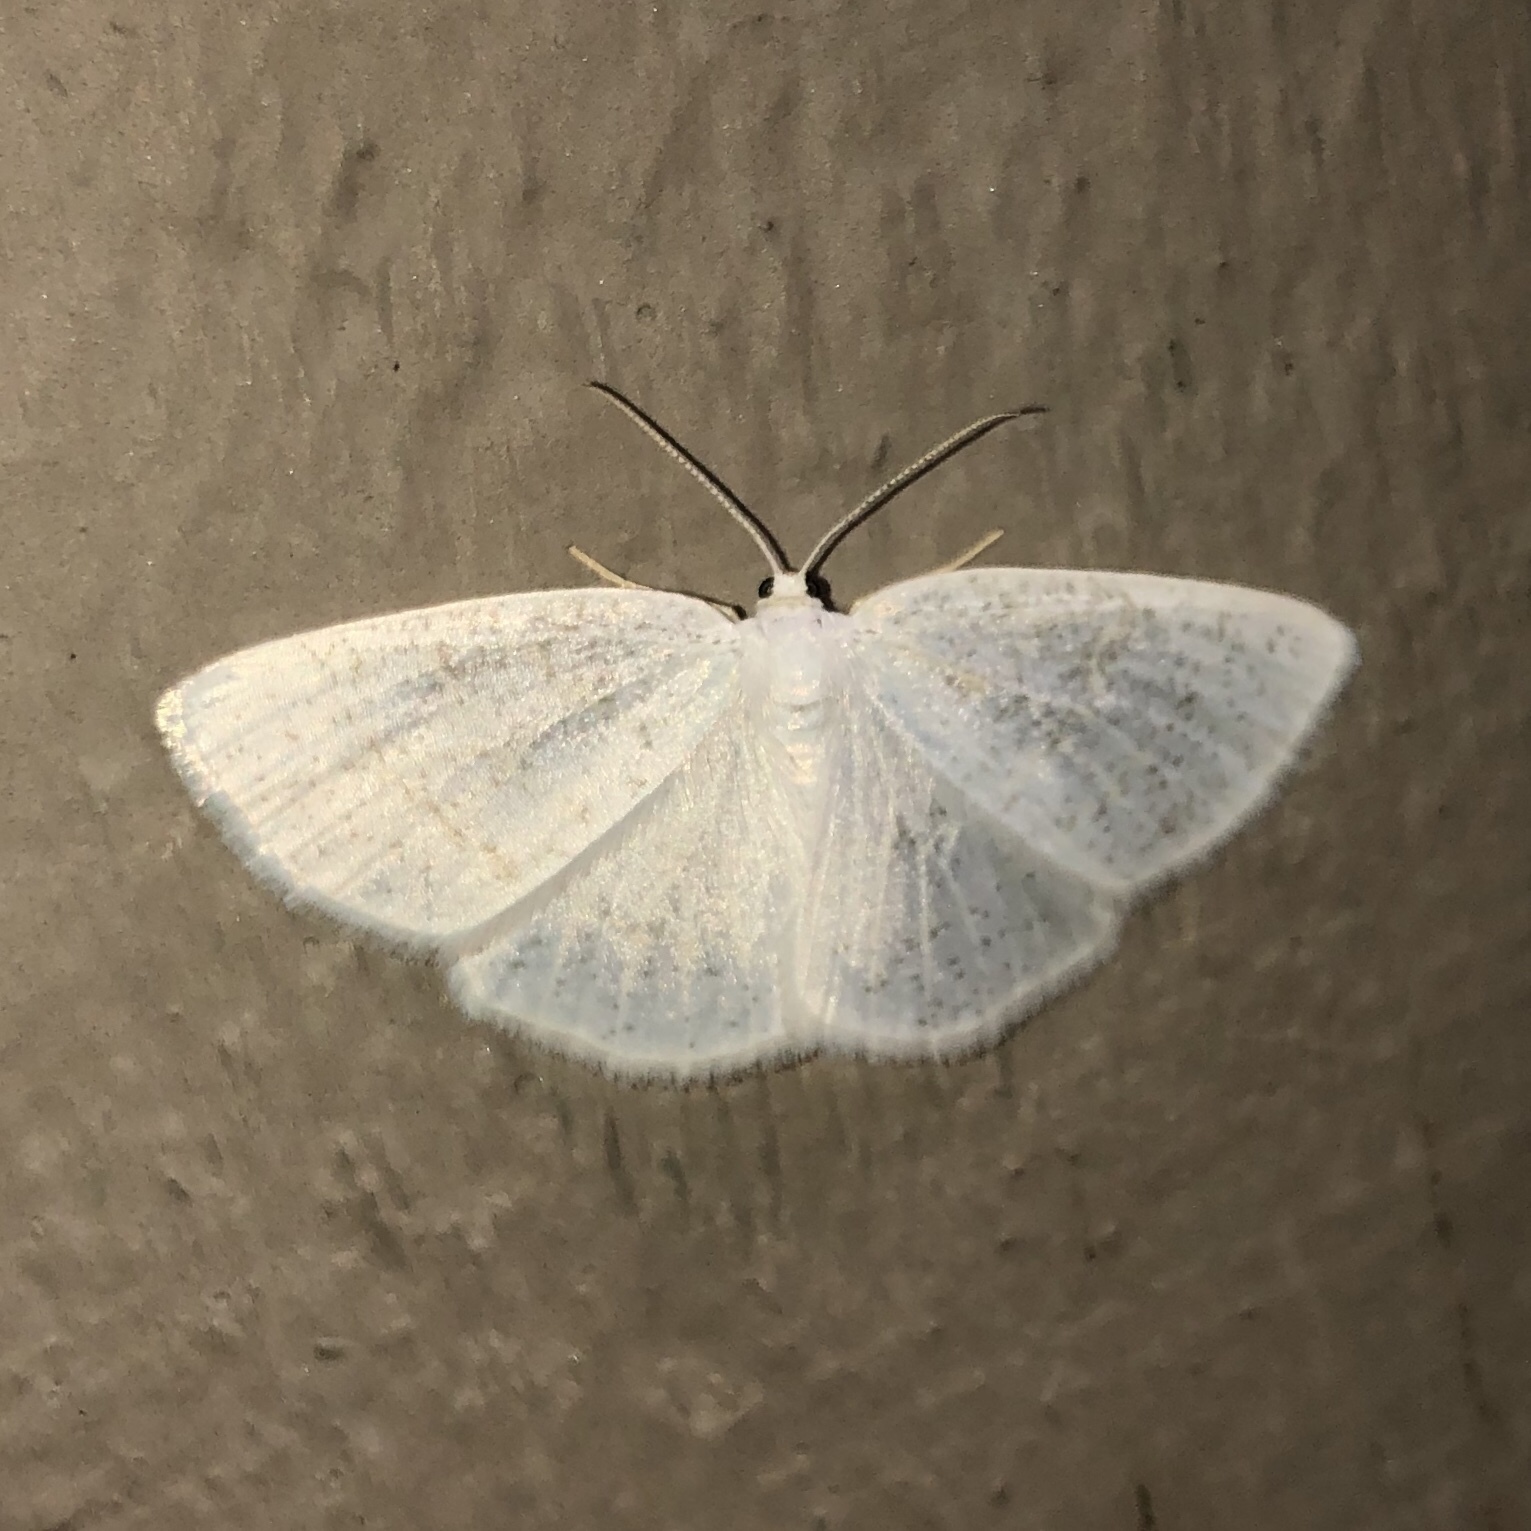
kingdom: Animalia
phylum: Arthropoda
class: Insecta
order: Lepidoptera
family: Geometridae
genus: Cabera
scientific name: Cabera erythemaria
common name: Yellow-dusted cream moth
